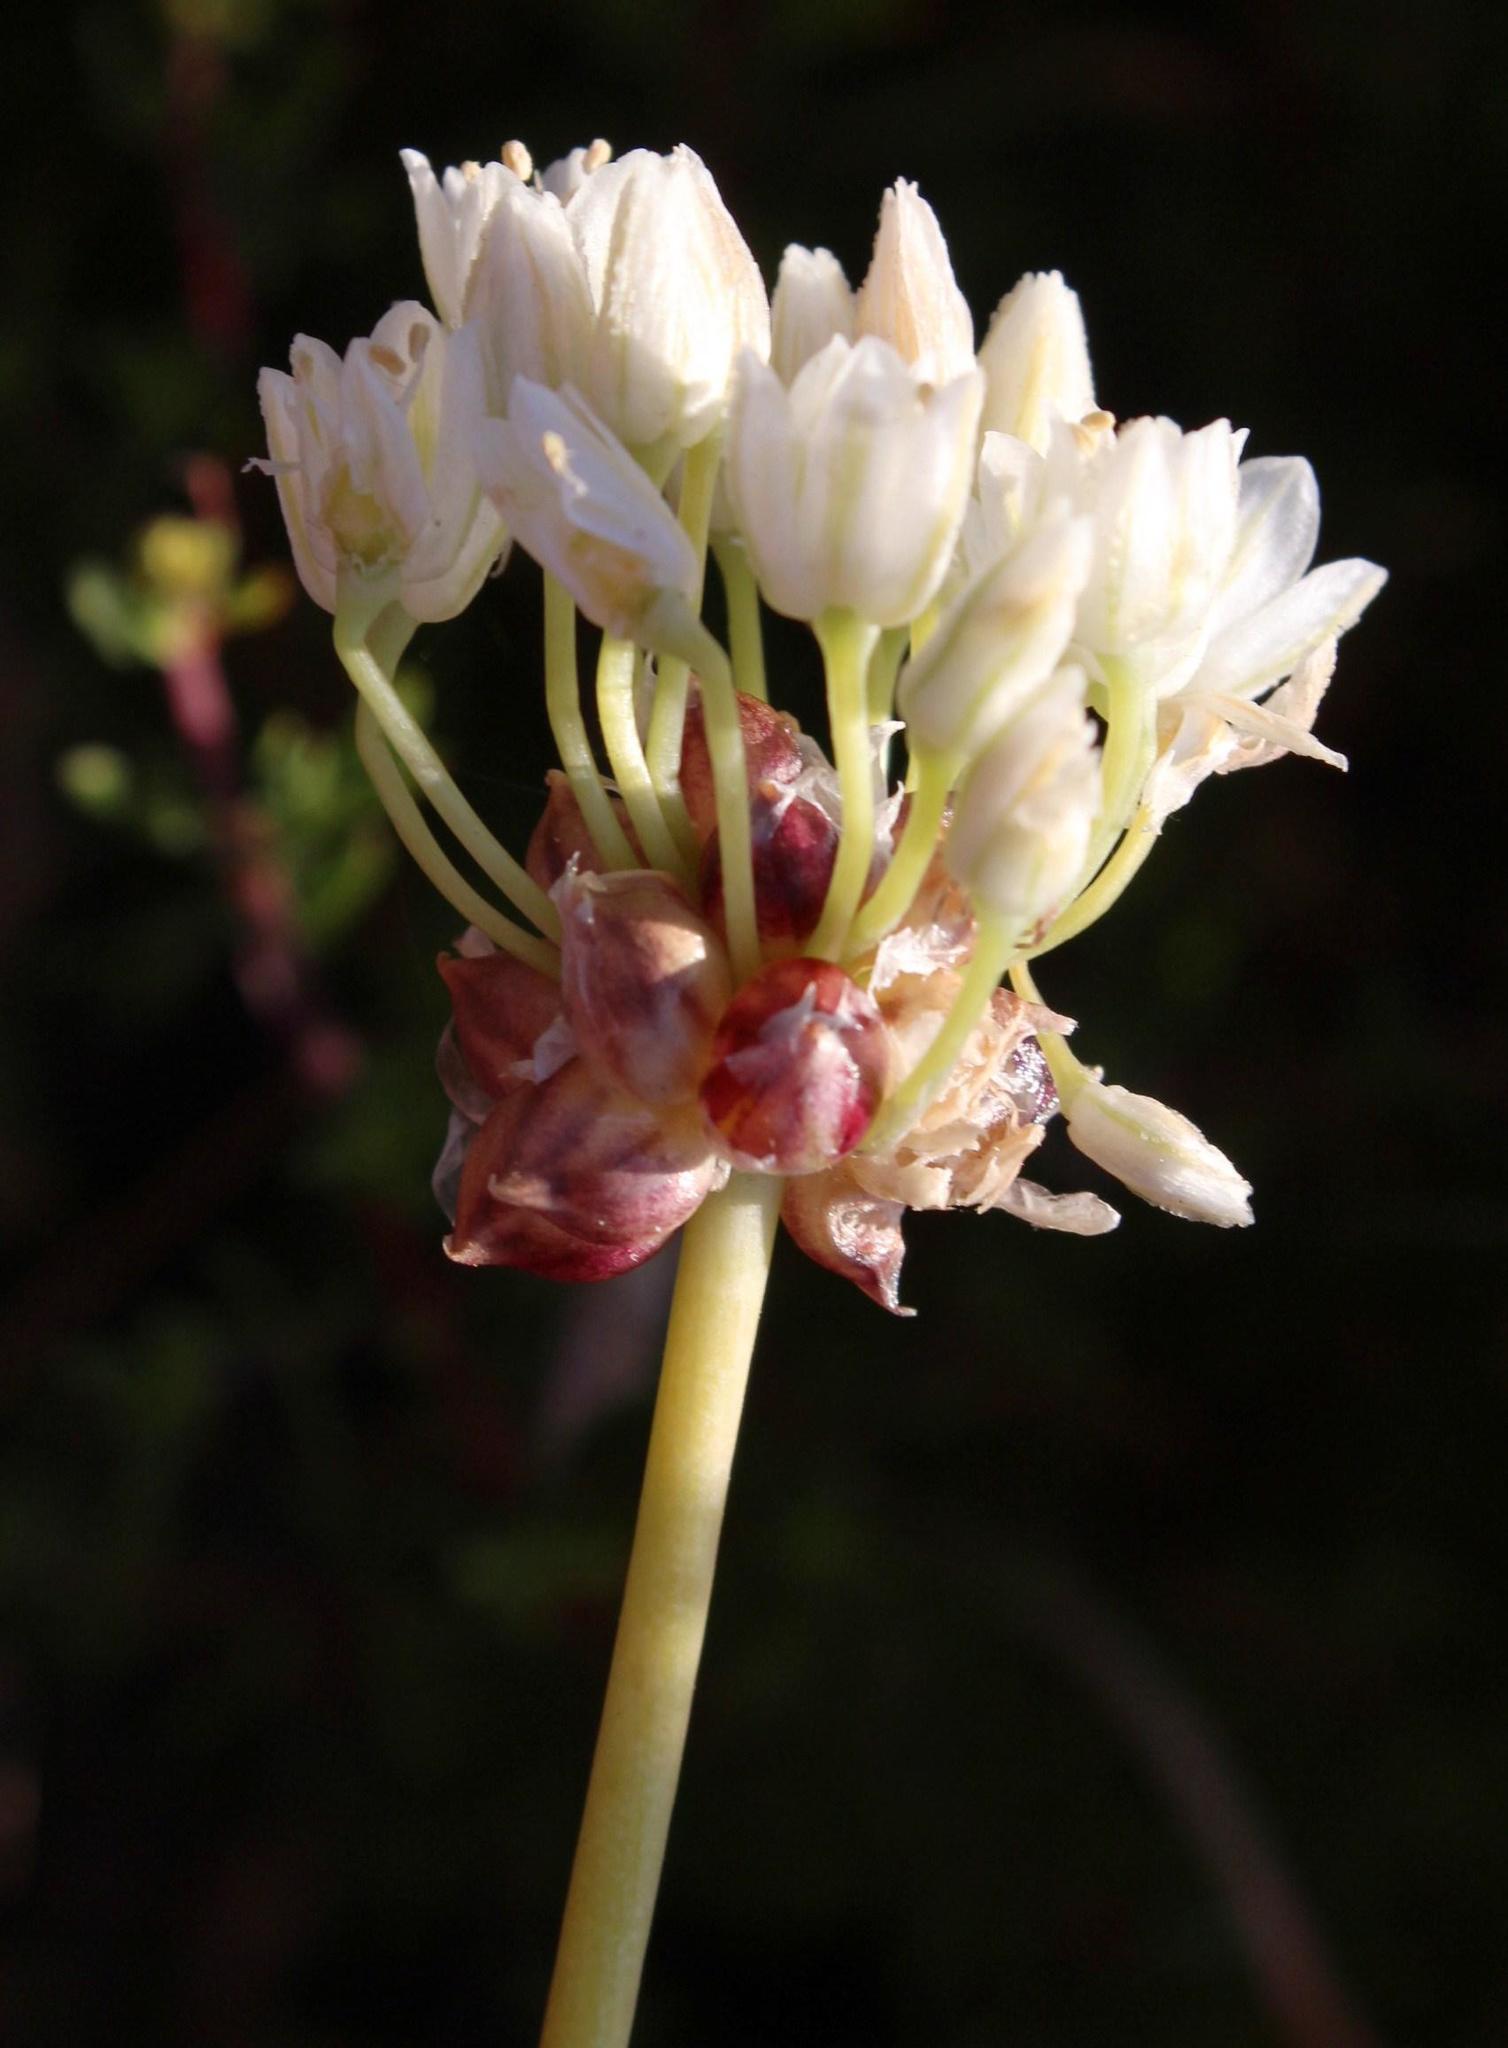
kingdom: Plantae
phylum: Tracheophyta
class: Liliopsida
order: Asparagales
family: Amaryllidaceae
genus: Allium
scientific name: Allium synnotii
